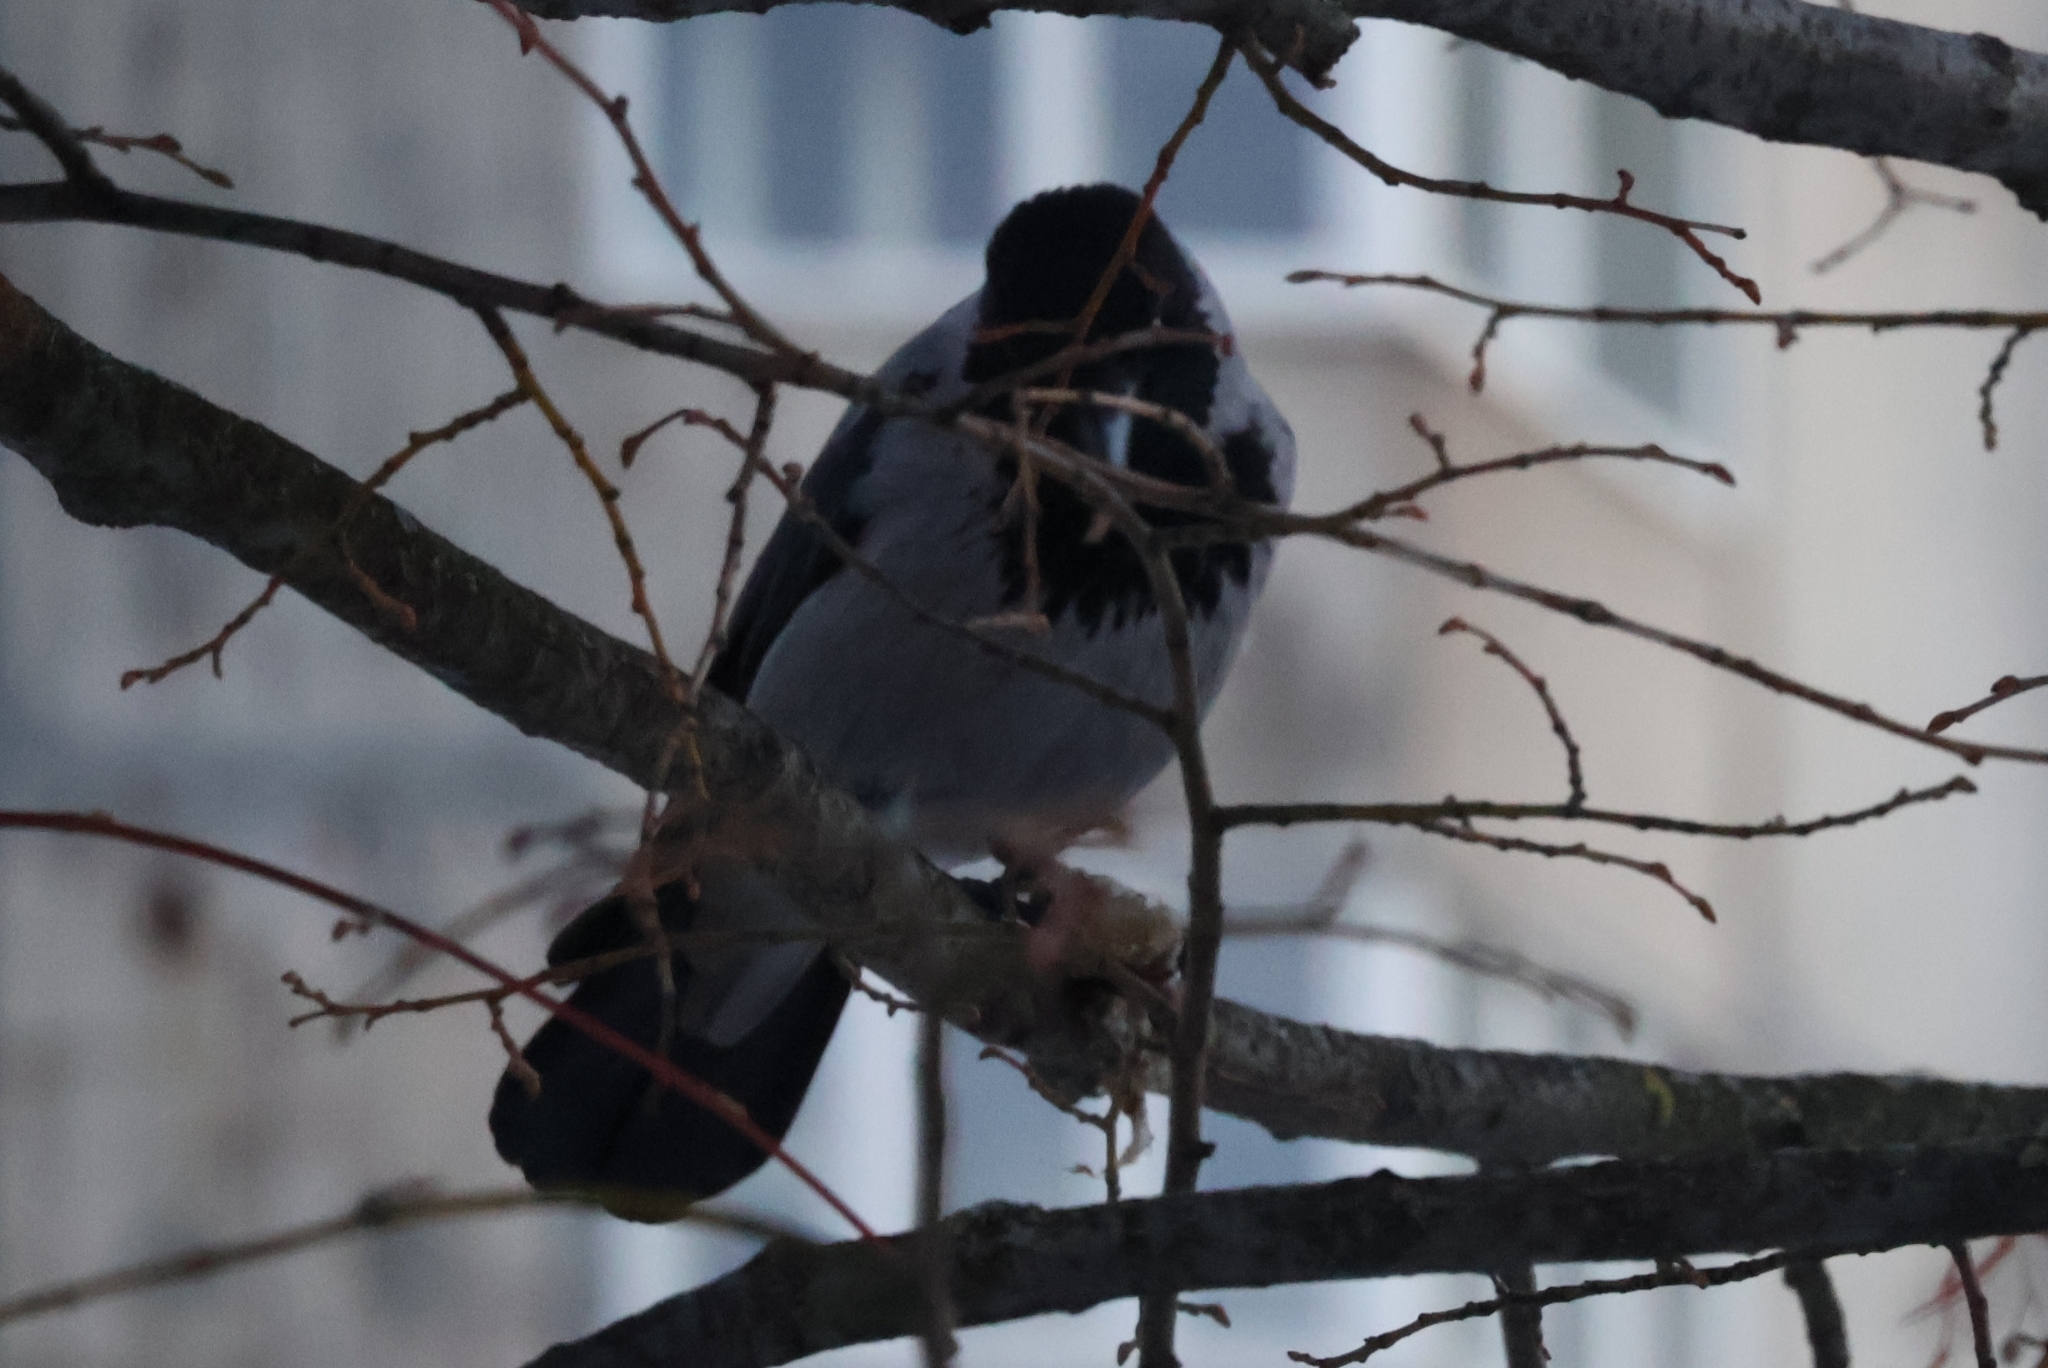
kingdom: Animalia
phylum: Chordata
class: Aves
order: Passeriformes
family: Corvidae
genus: Corvus
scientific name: Corvus cornix
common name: Hooded crow
